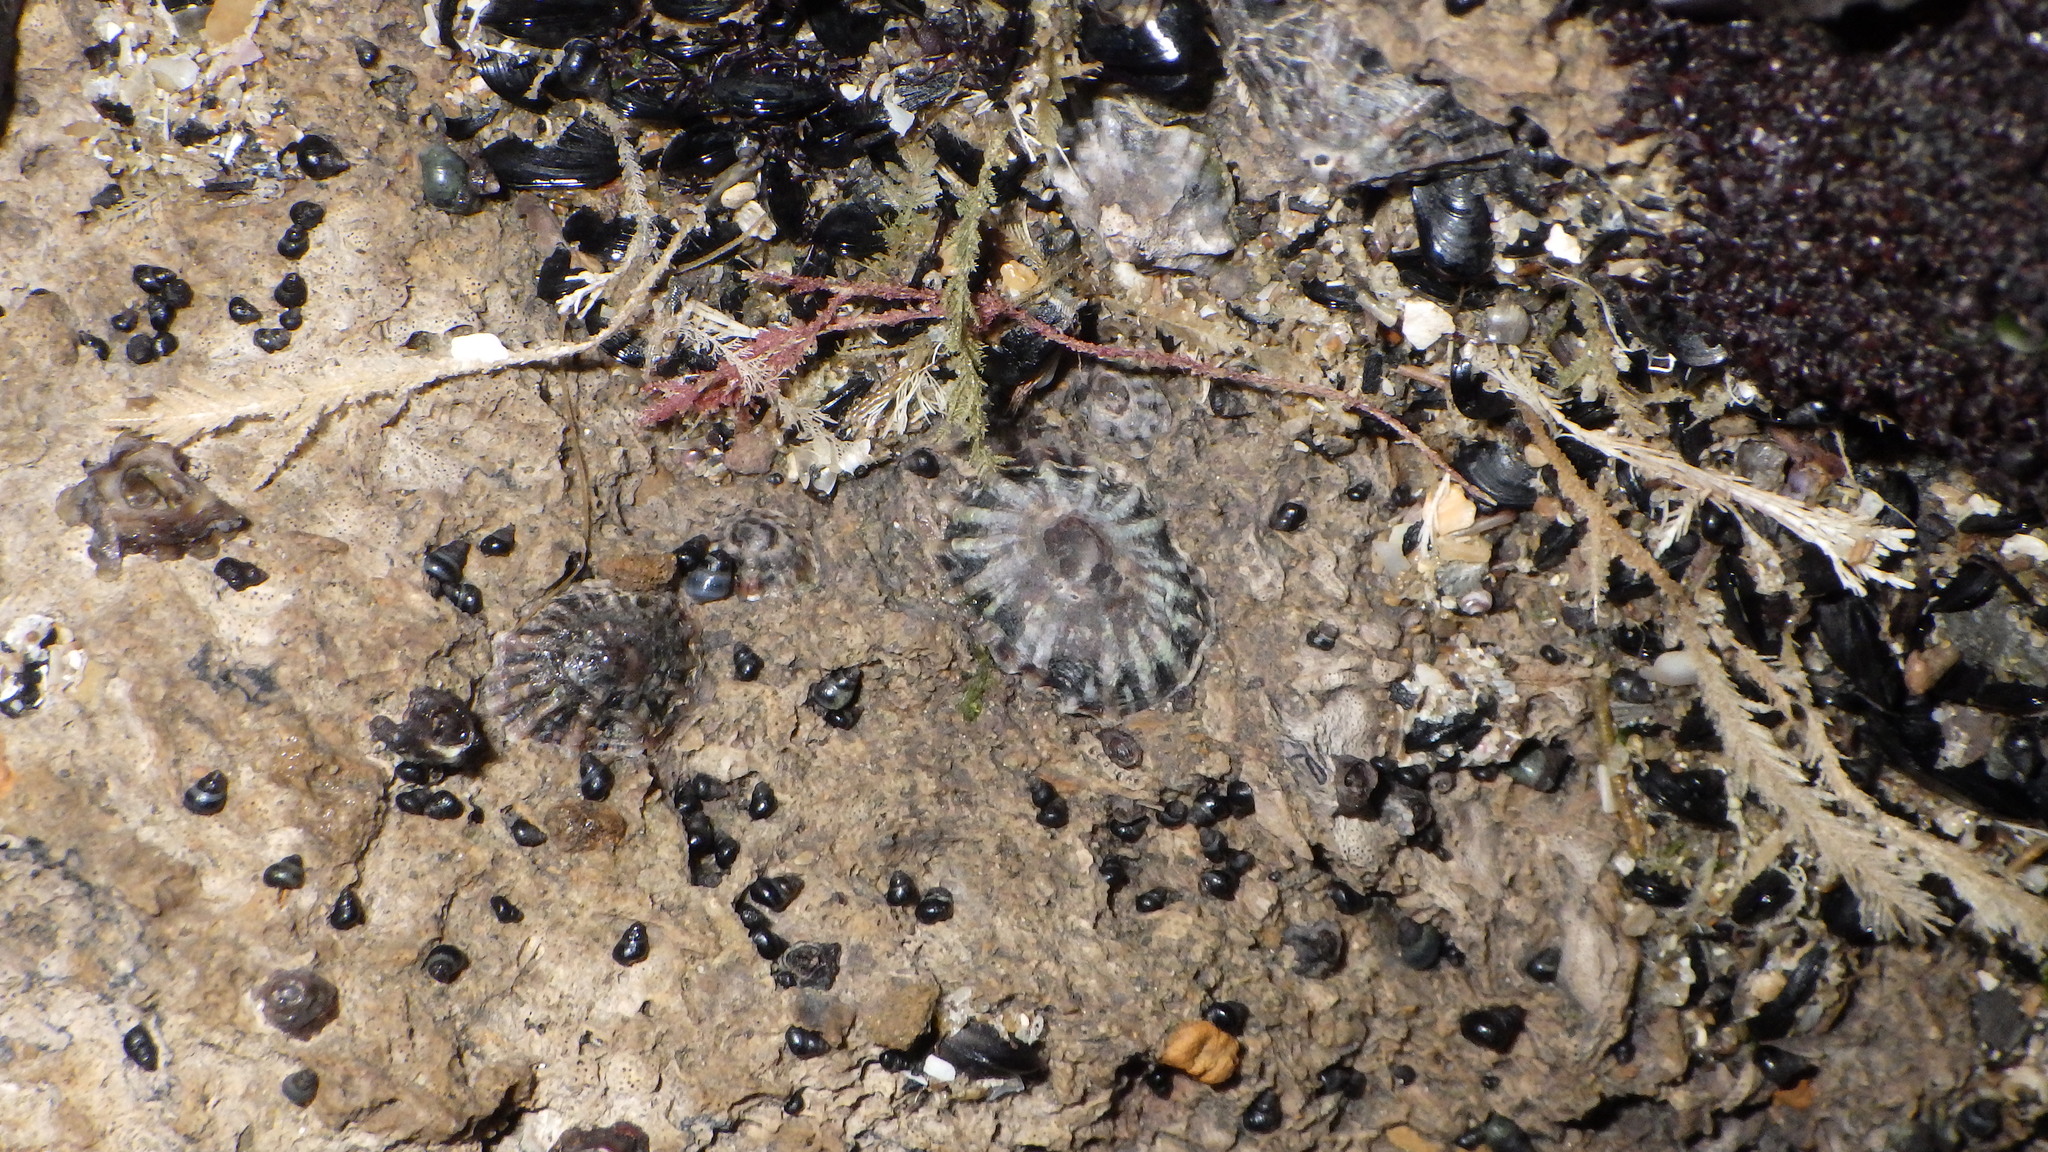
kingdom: Animalia
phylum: Mollusca
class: Gastropoda
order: Siphonariida
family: Siphonariidae
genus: Siphonaria
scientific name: Siphonaria australis
